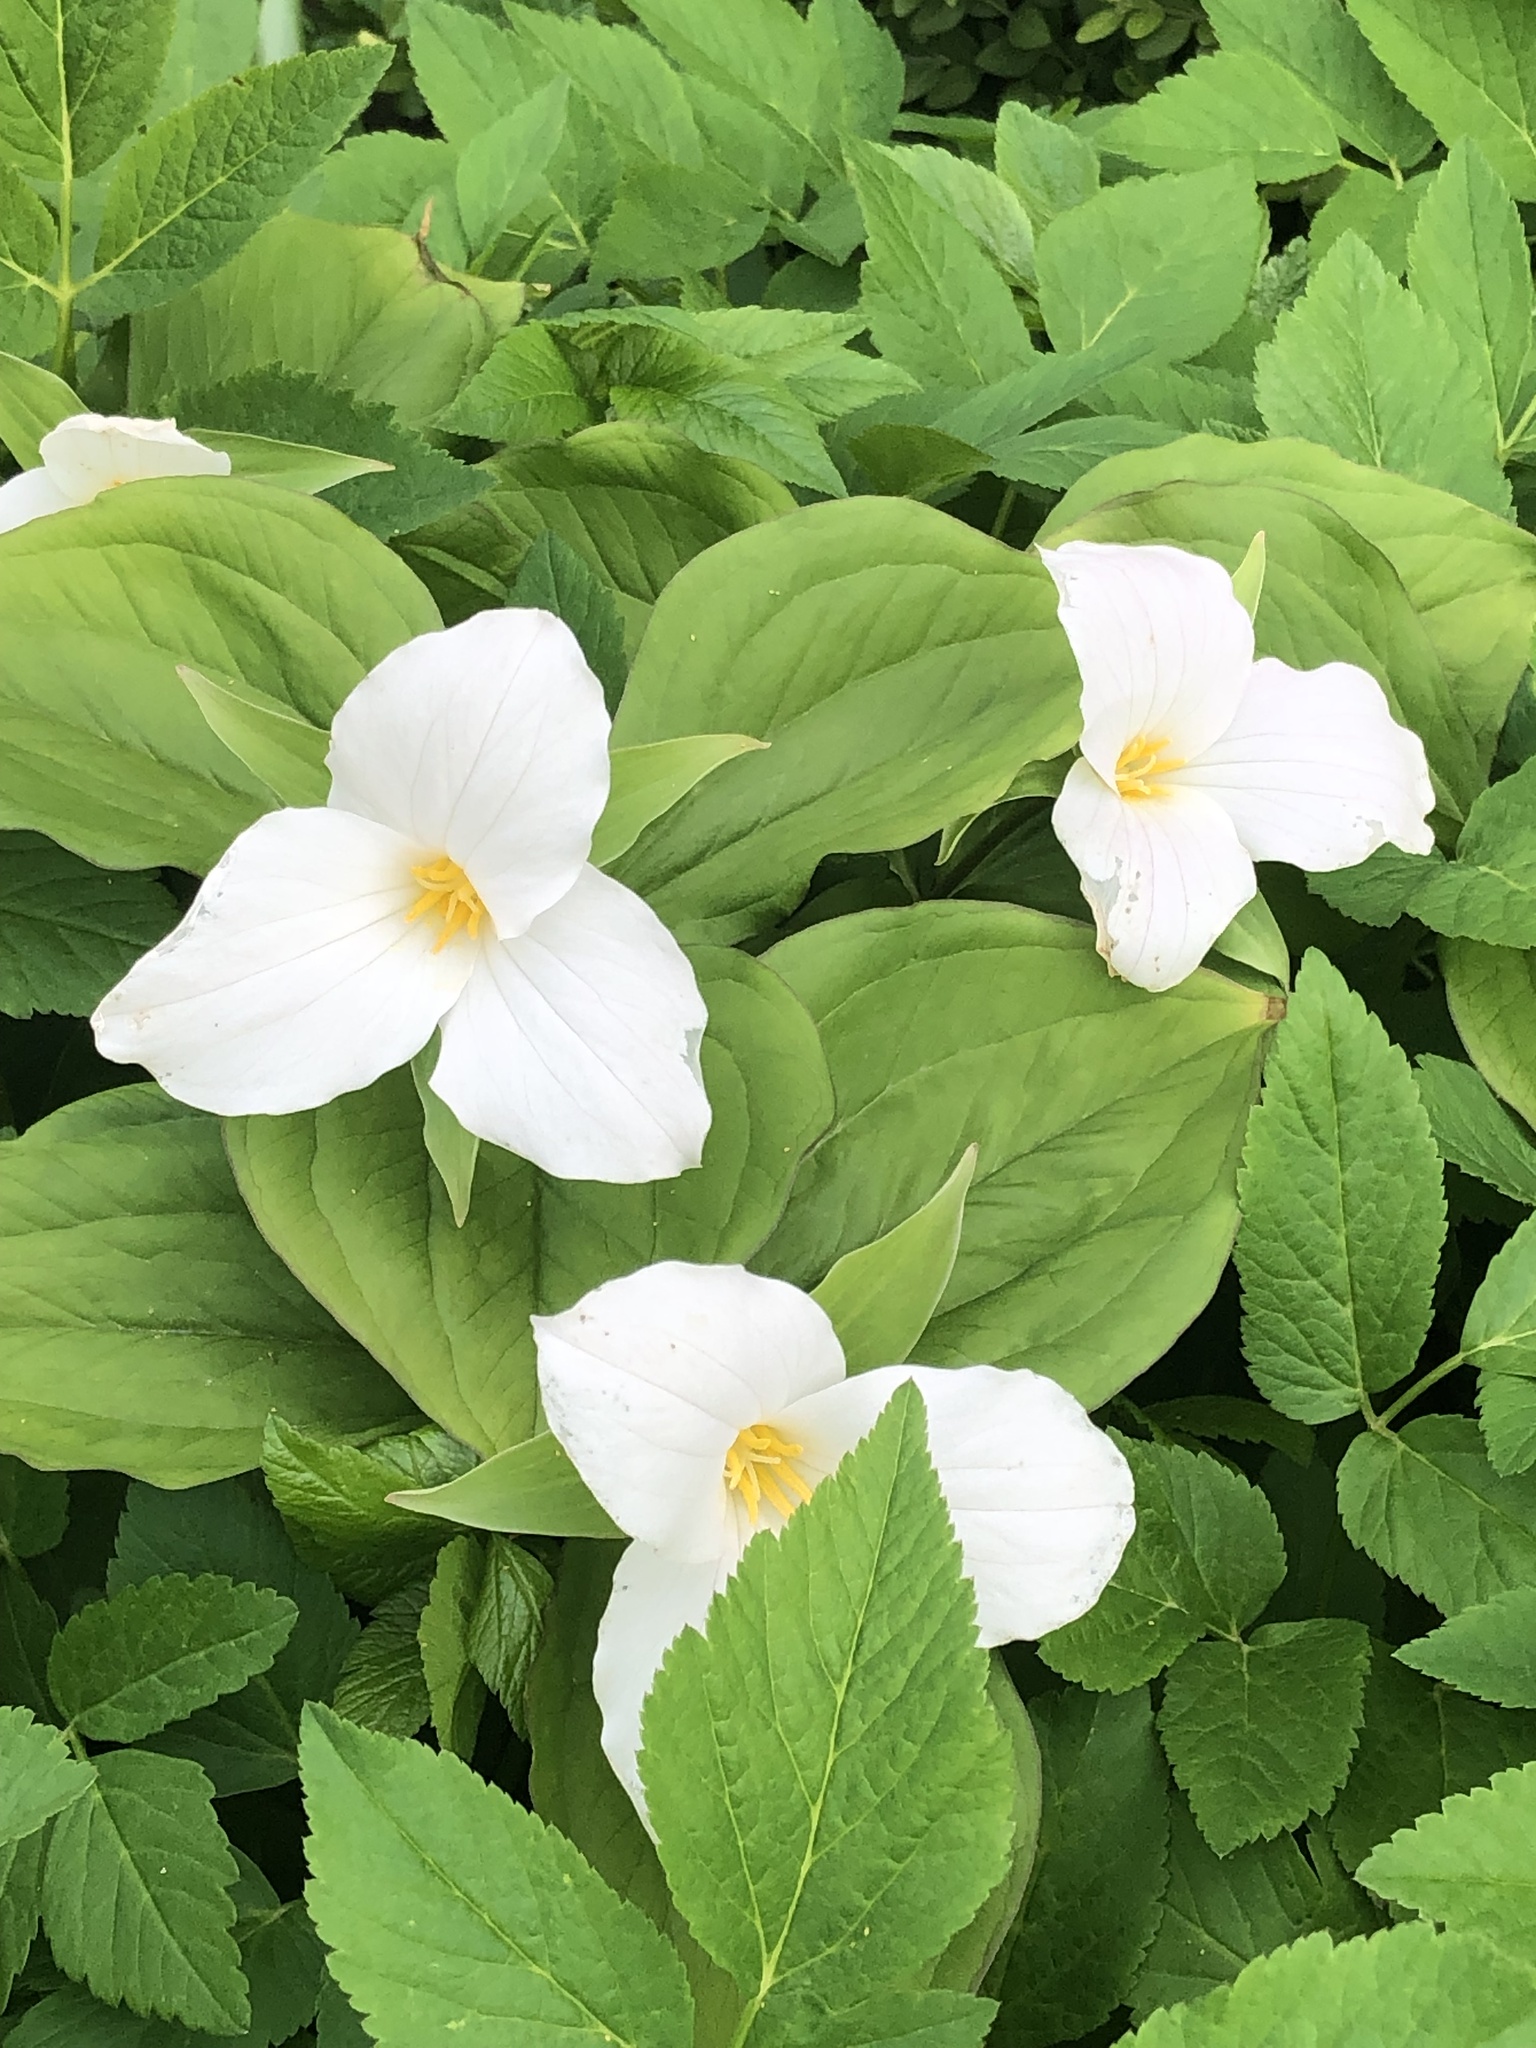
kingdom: Plantae
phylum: Tracheophyta
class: Liliopsida
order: Liliales
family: Melanthiaceae
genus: Trillium
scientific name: Trillium grandiflorum
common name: Great white trillium
